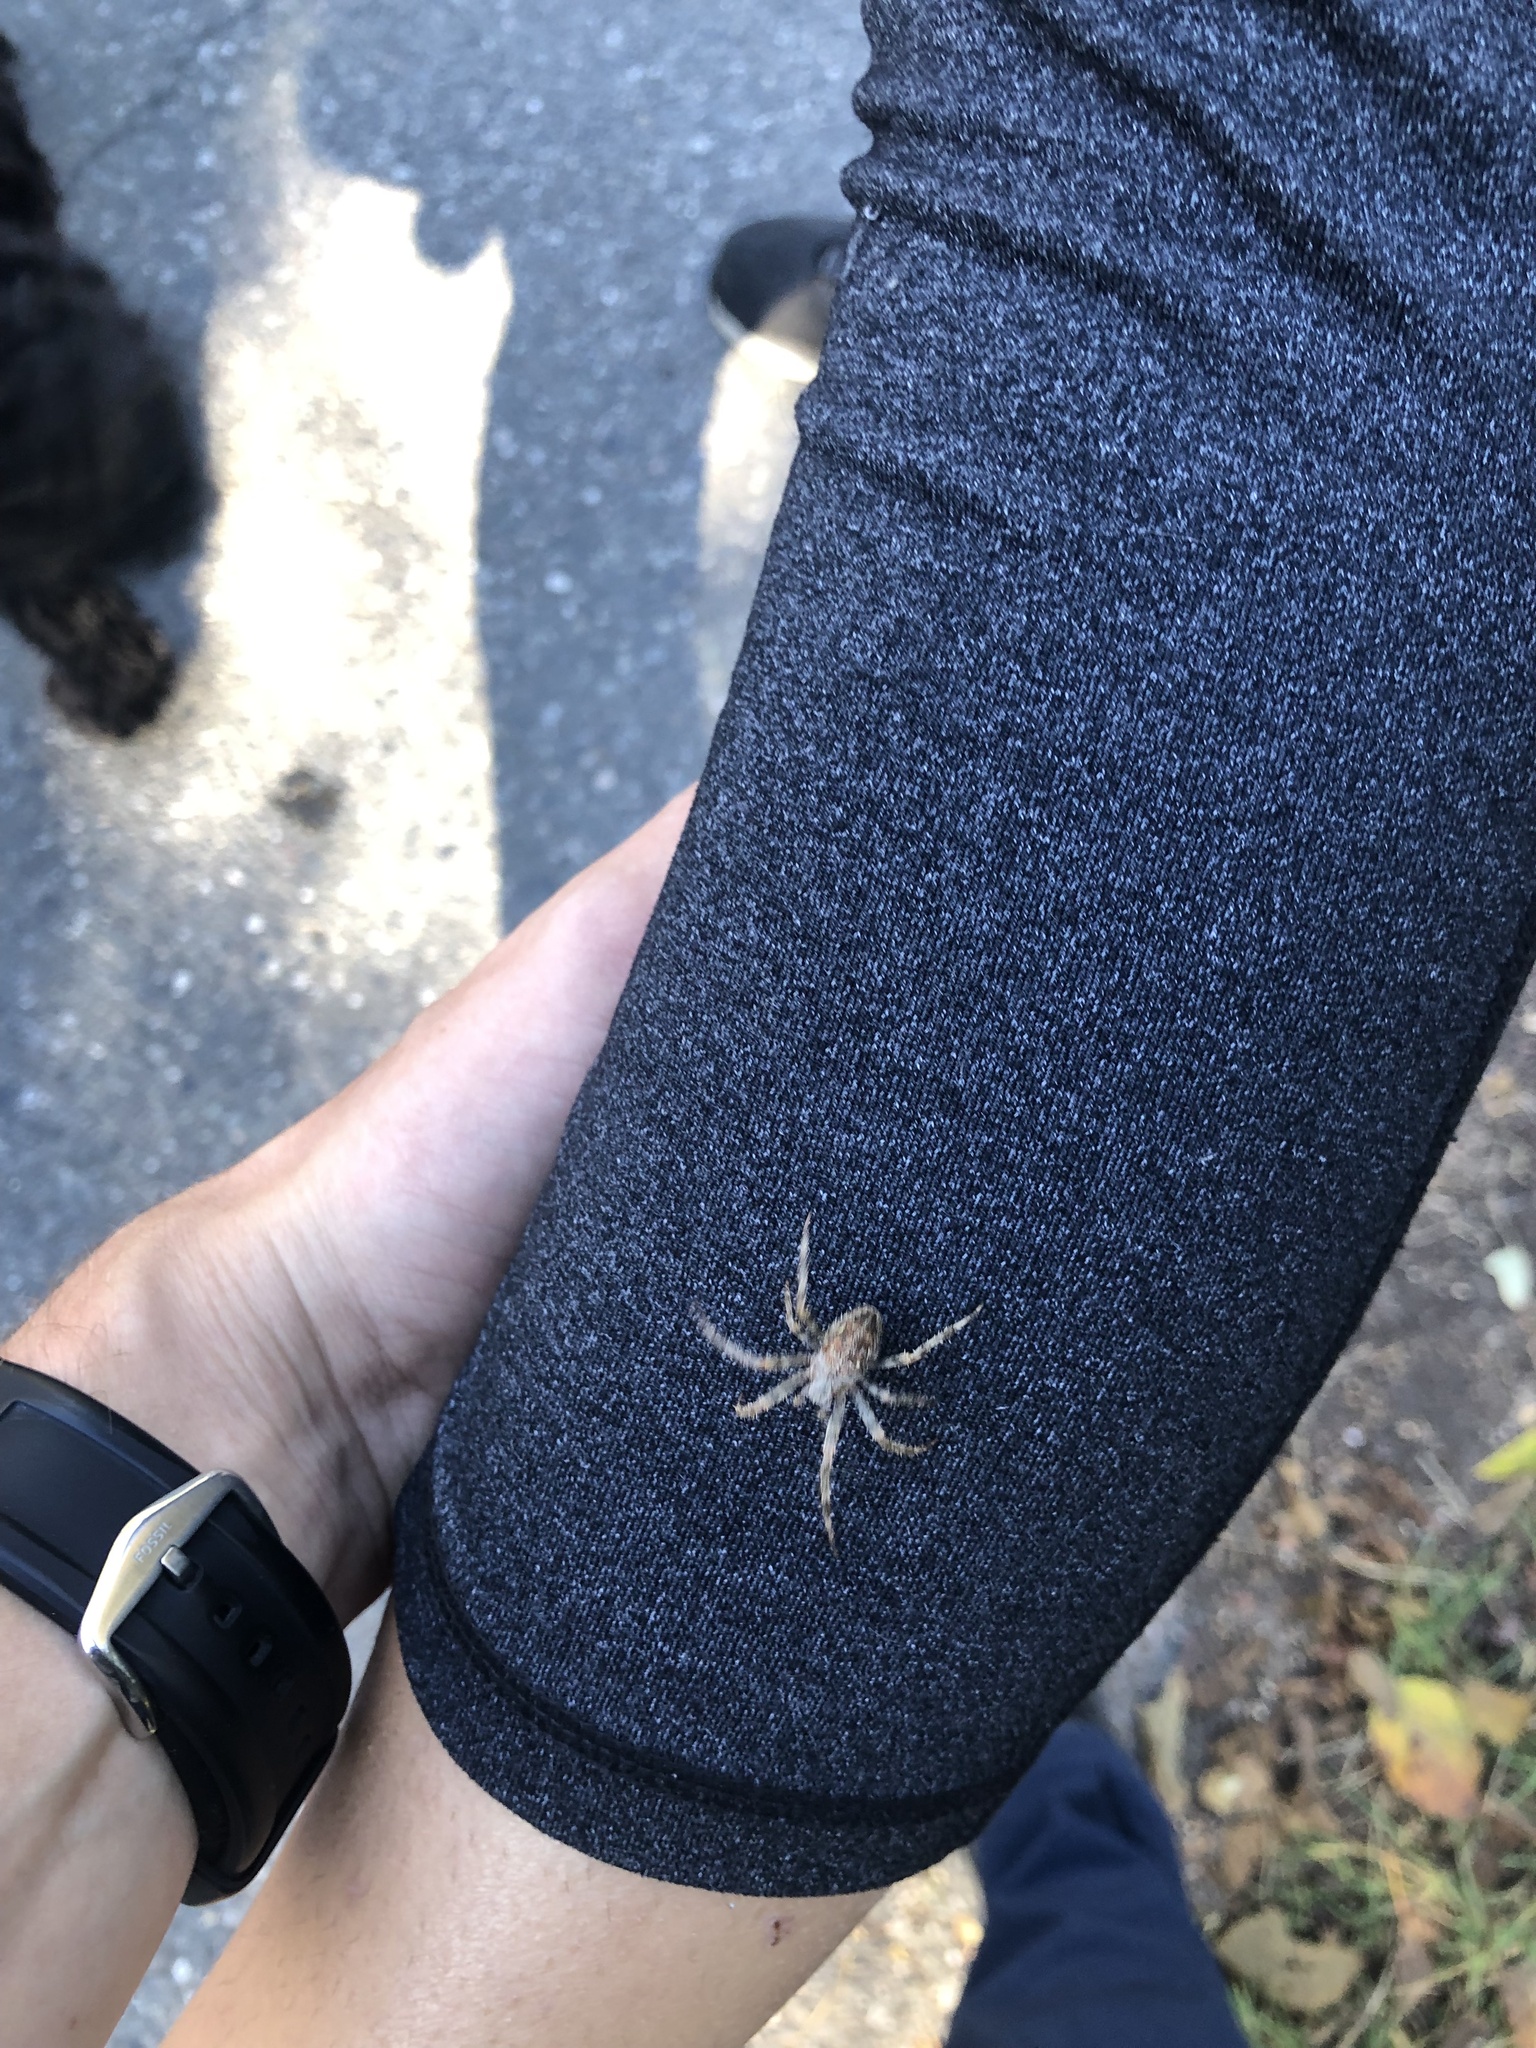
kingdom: Animalia
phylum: Arthropoda
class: Arachnida
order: Araneae
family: Araneidae
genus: Araneus
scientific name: Araneus diadematus
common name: Cross orbweaver
